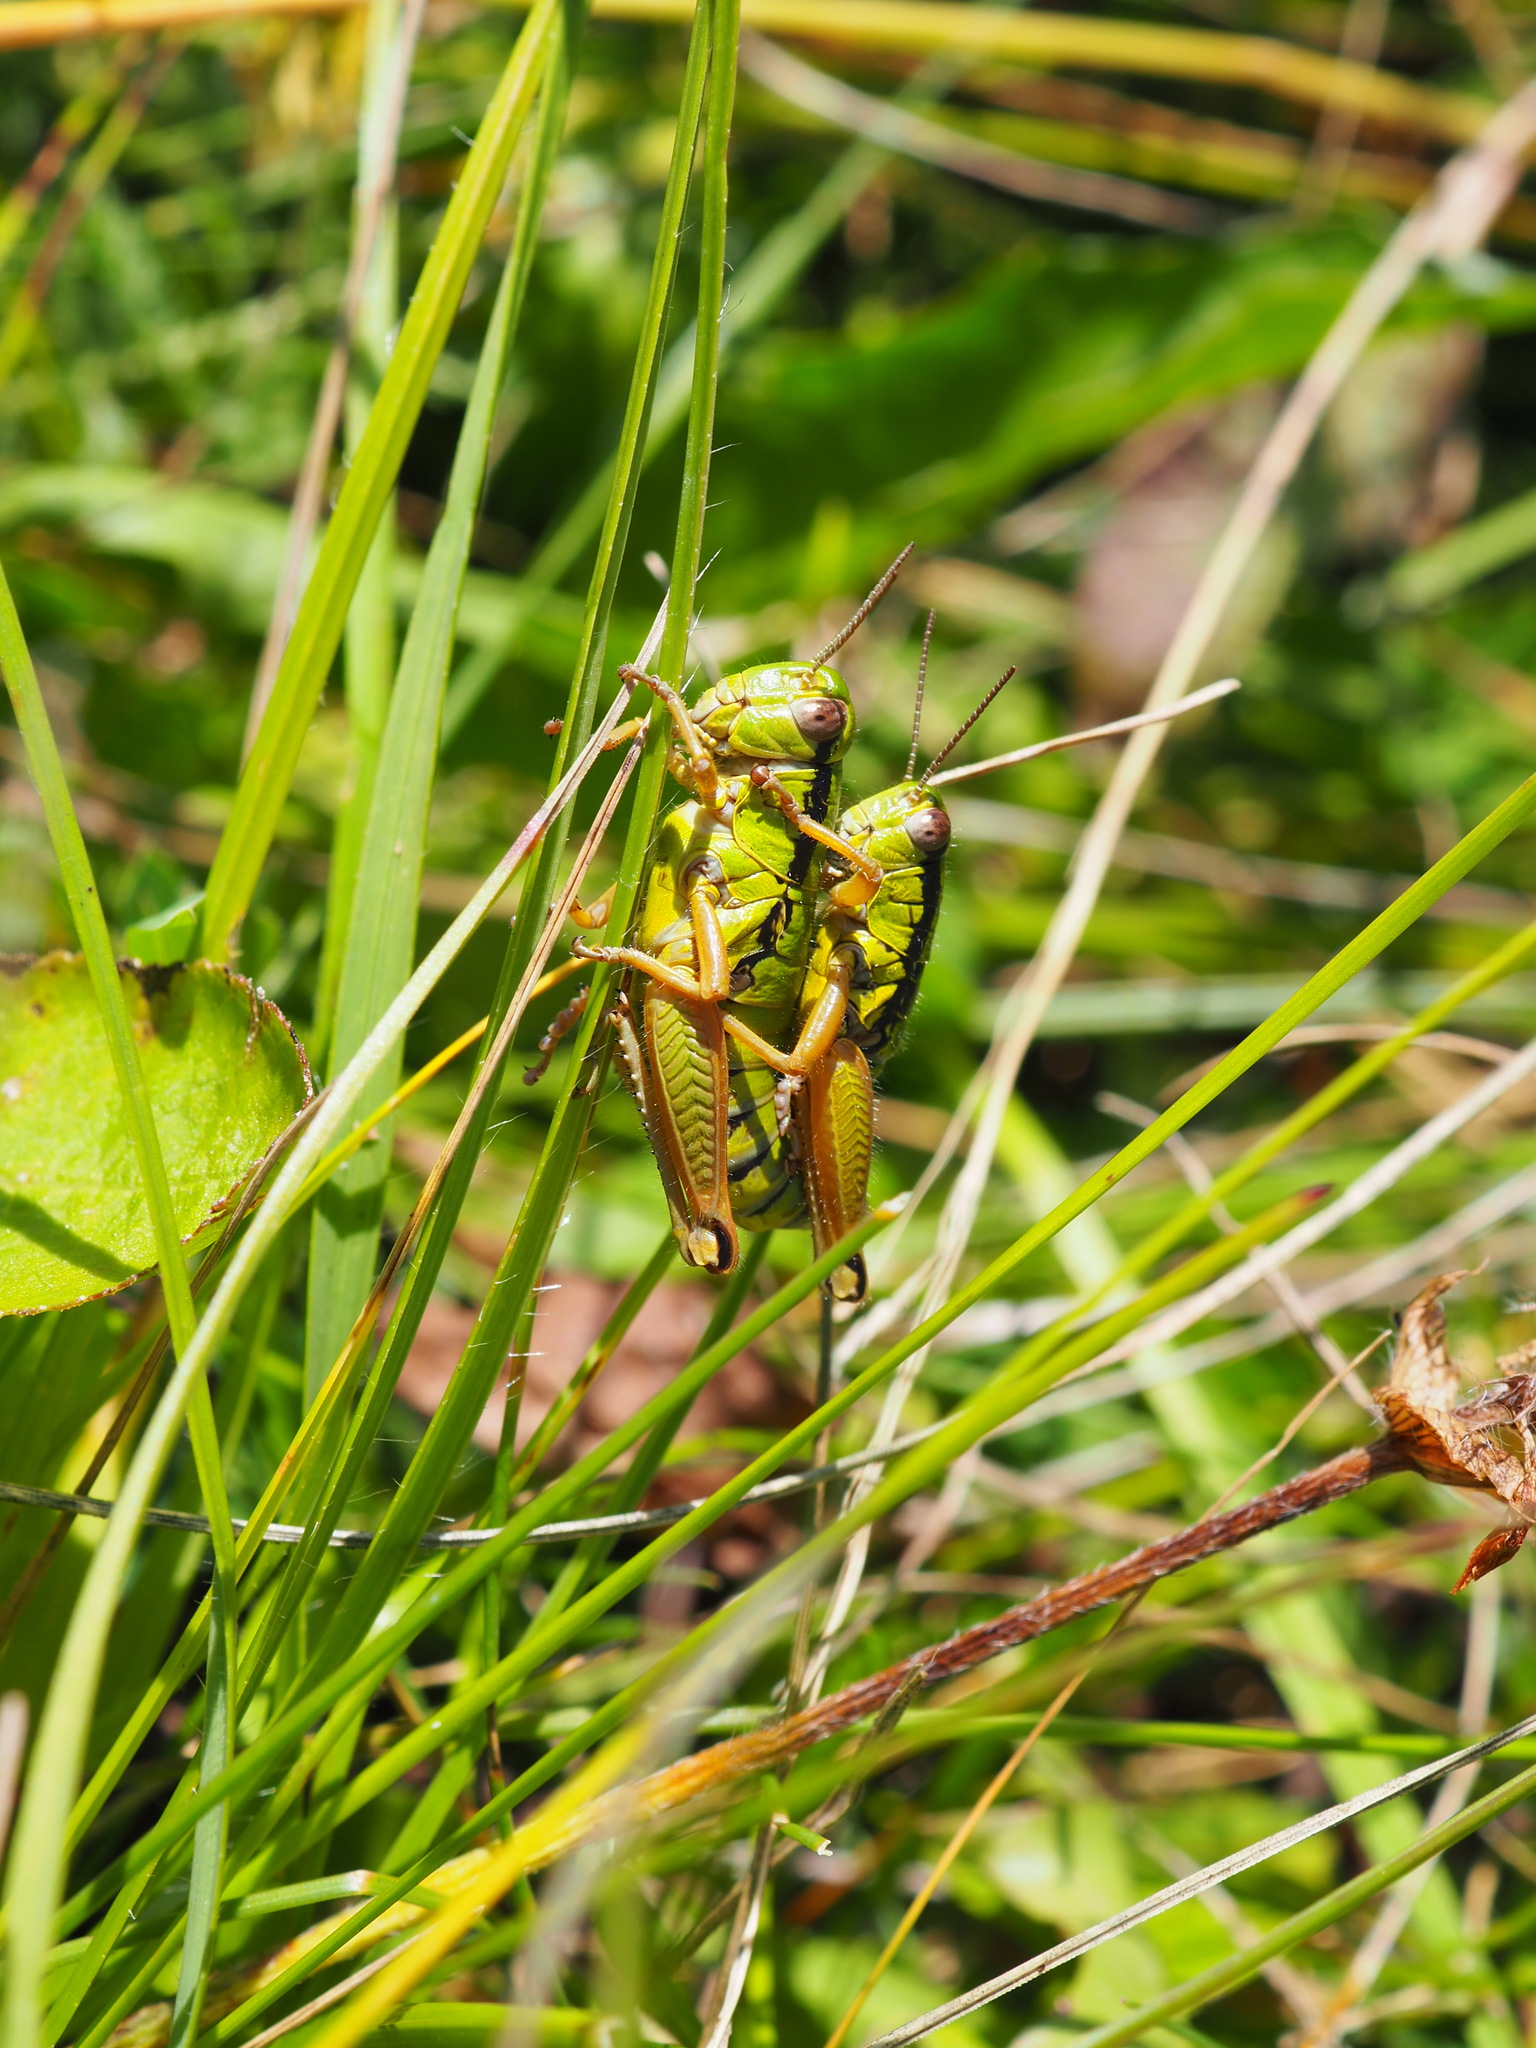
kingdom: Animalia
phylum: Arthropoda
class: Insecta
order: Orthoptera
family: Acrididae
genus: Pseudoprumna
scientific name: Pseudoprumna baldensis
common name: Baldo mountain grasshopper
